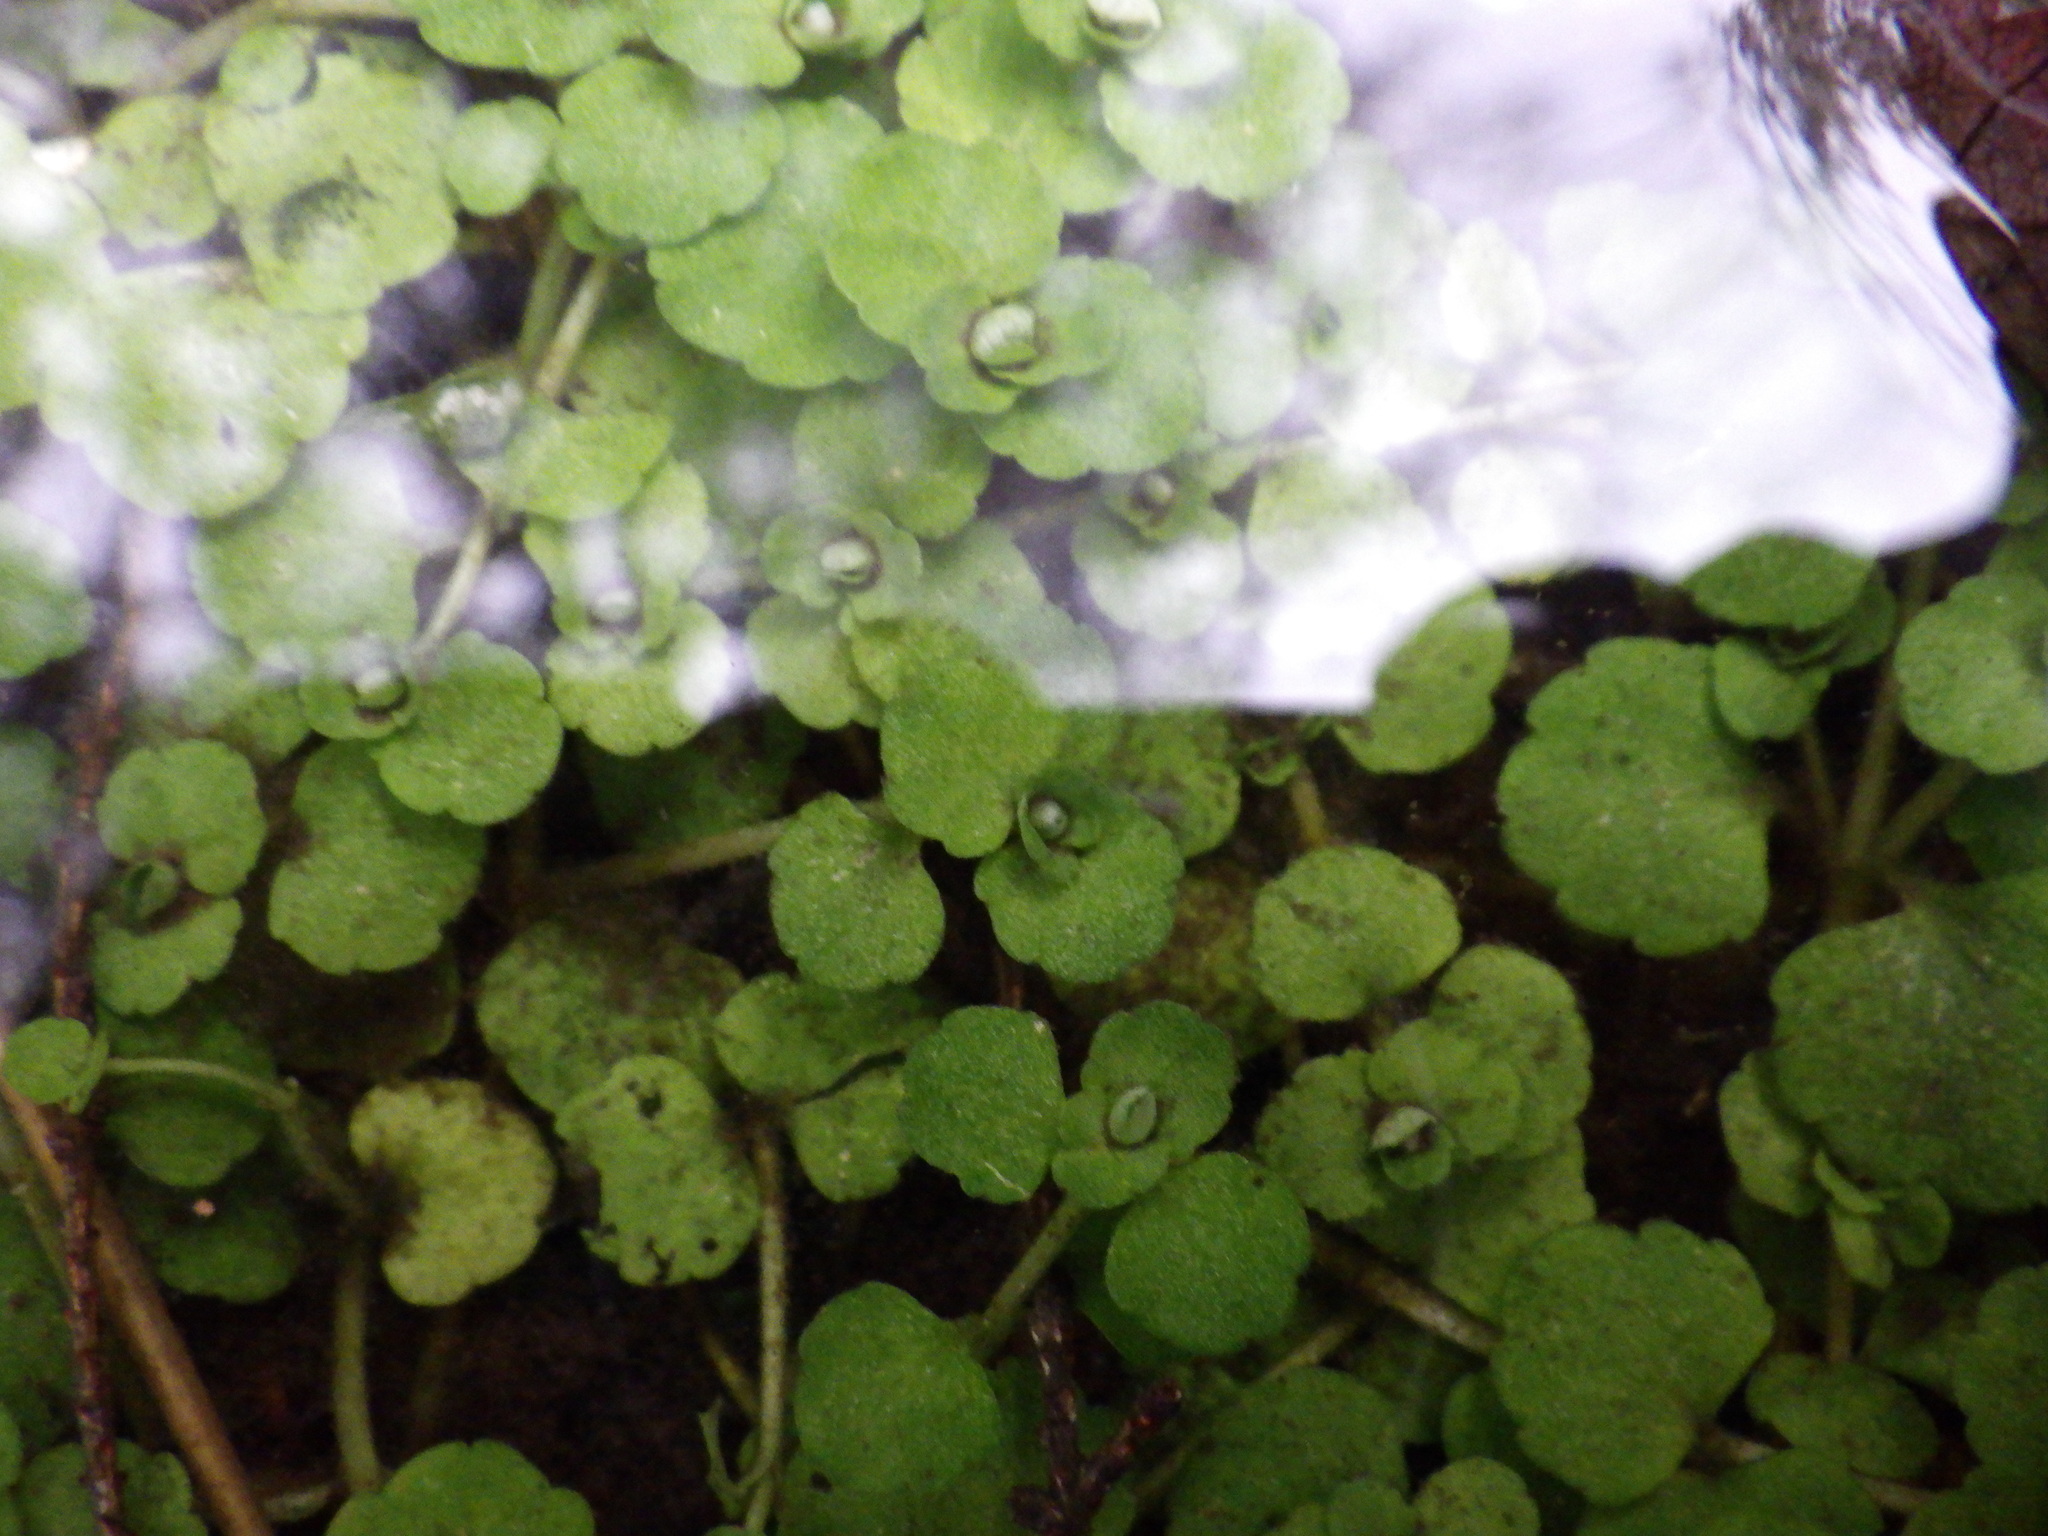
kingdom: Plantae
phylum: Tracheophyta
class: Magnoliopsida
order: Saxifragales
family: Saxifragaceae
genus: Chrysosplenium
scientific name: Chrysosplenium americanum
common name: American golden-saxifrage
